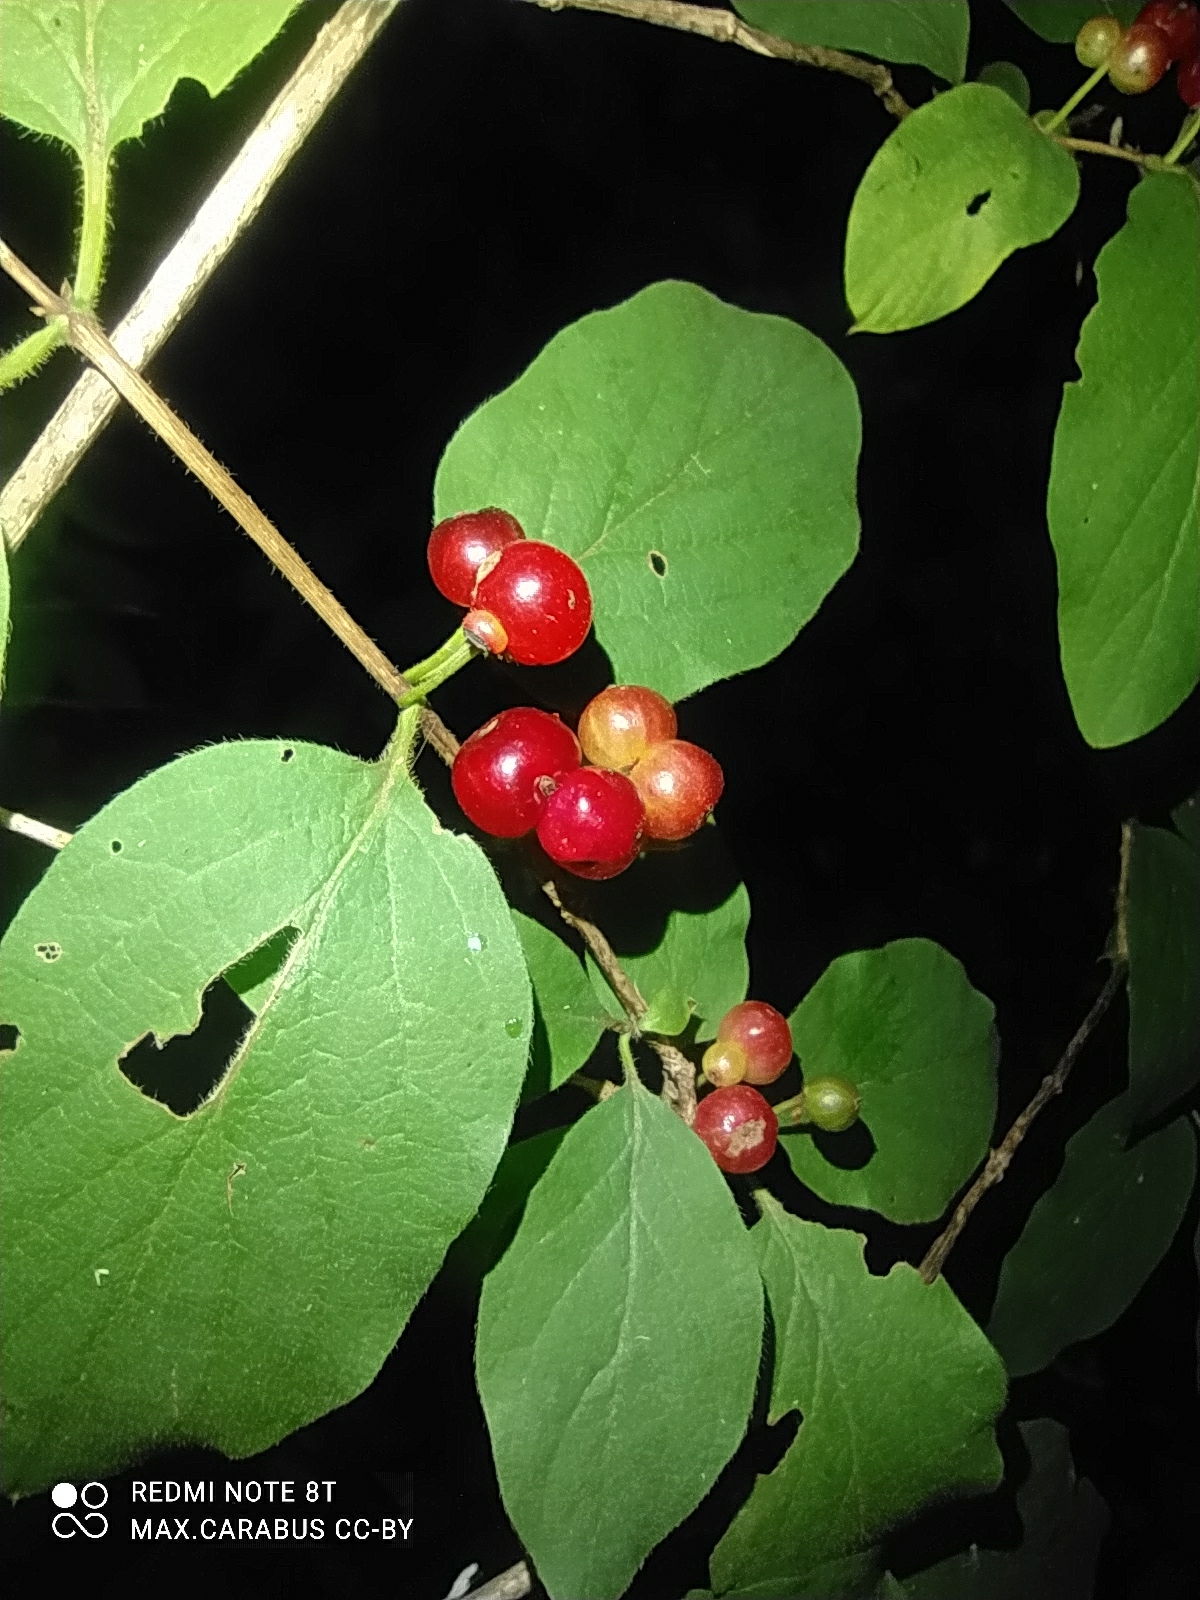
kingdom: Plantae
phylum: Tracheophyta
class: Magnoliopsida
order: Dipsacales
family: Caprifoliaceae
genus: Lonicera
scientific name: Lonicera xylosteum
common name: Fly honeysuckle
